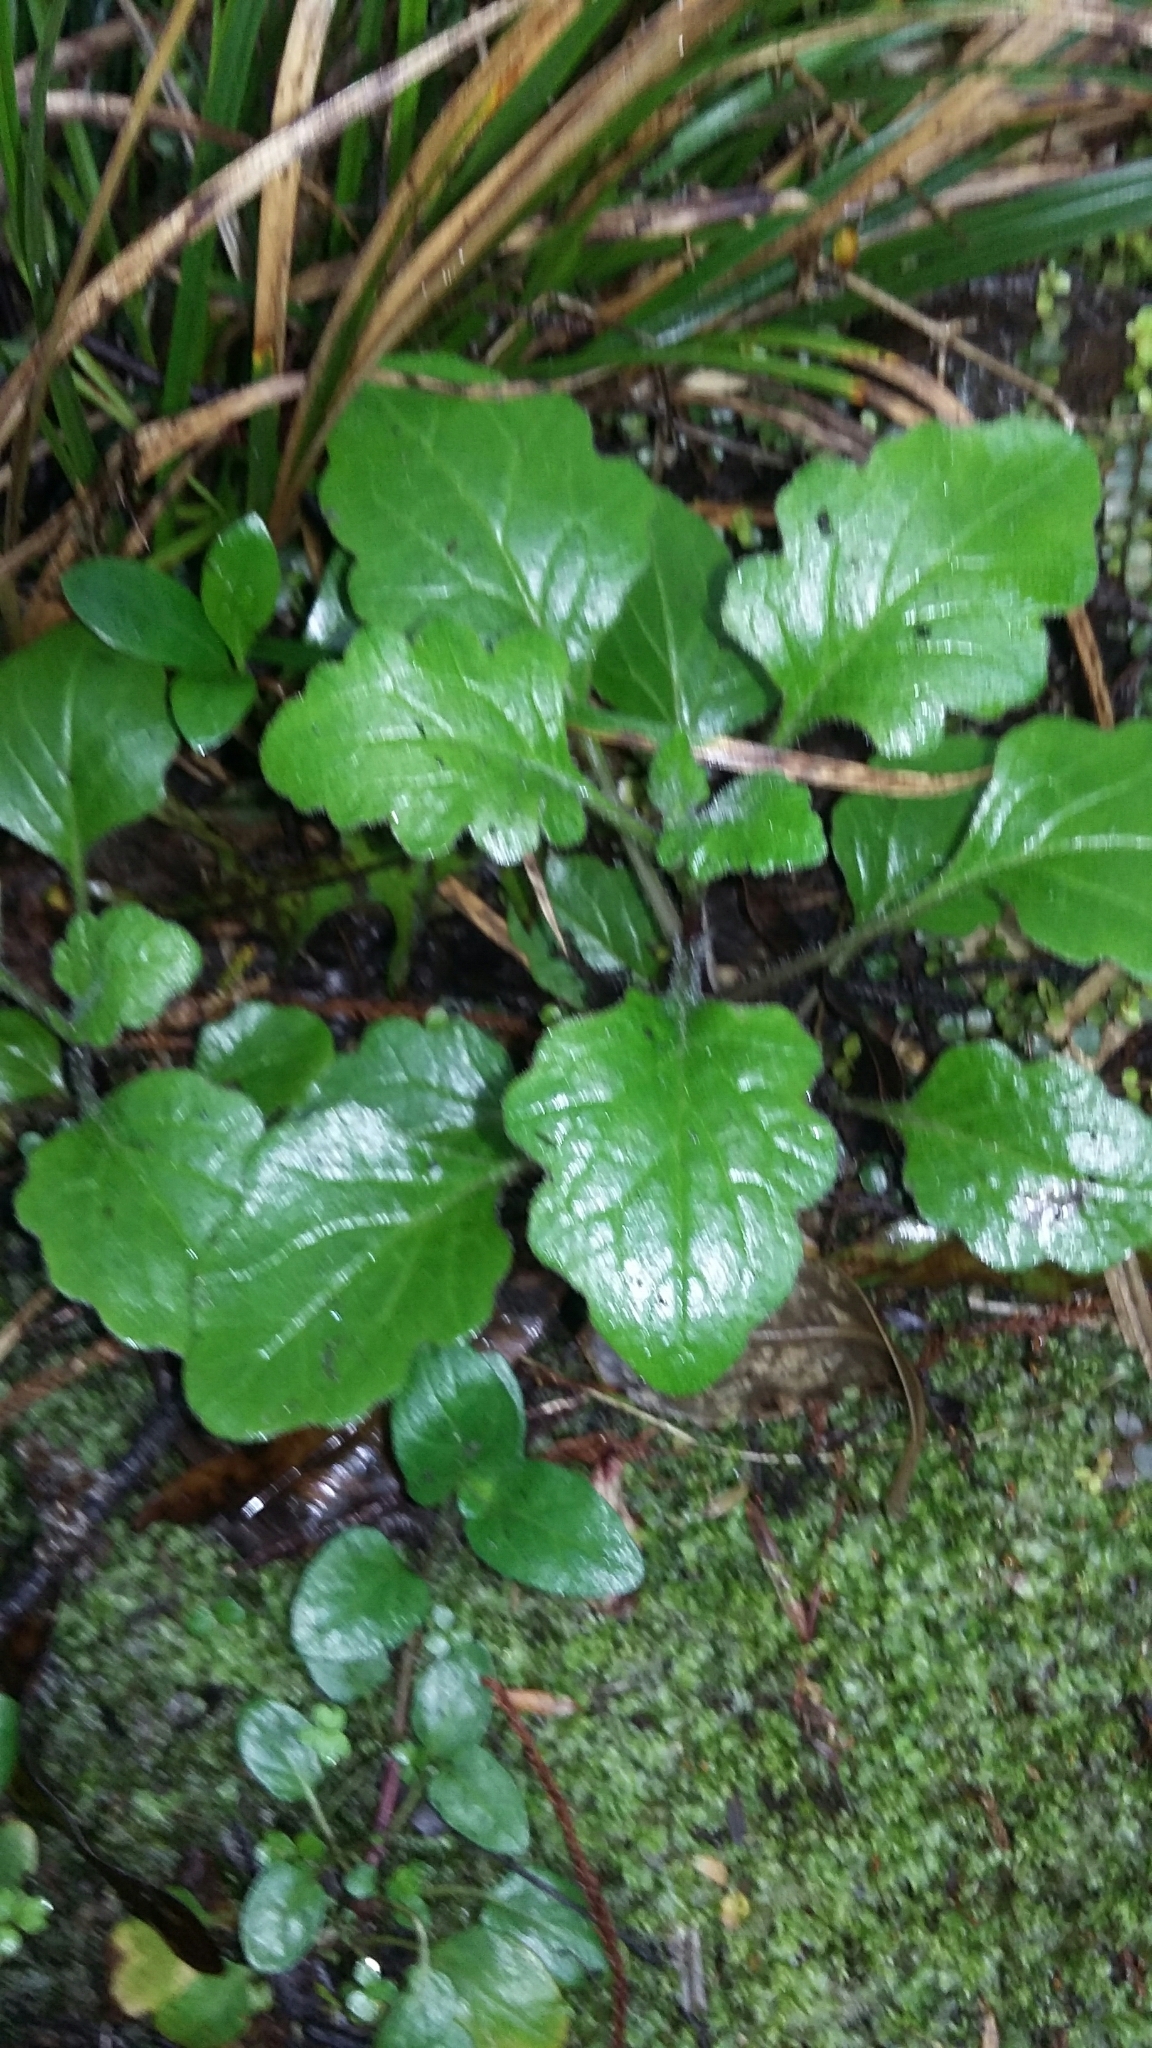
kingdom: Plantae
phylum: Tracheophyta
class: Magnoliopsida
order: Asterales
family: Asteraceae
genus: Jacobaea
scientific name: Jacobaea vulgaris
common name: Stinking willie
